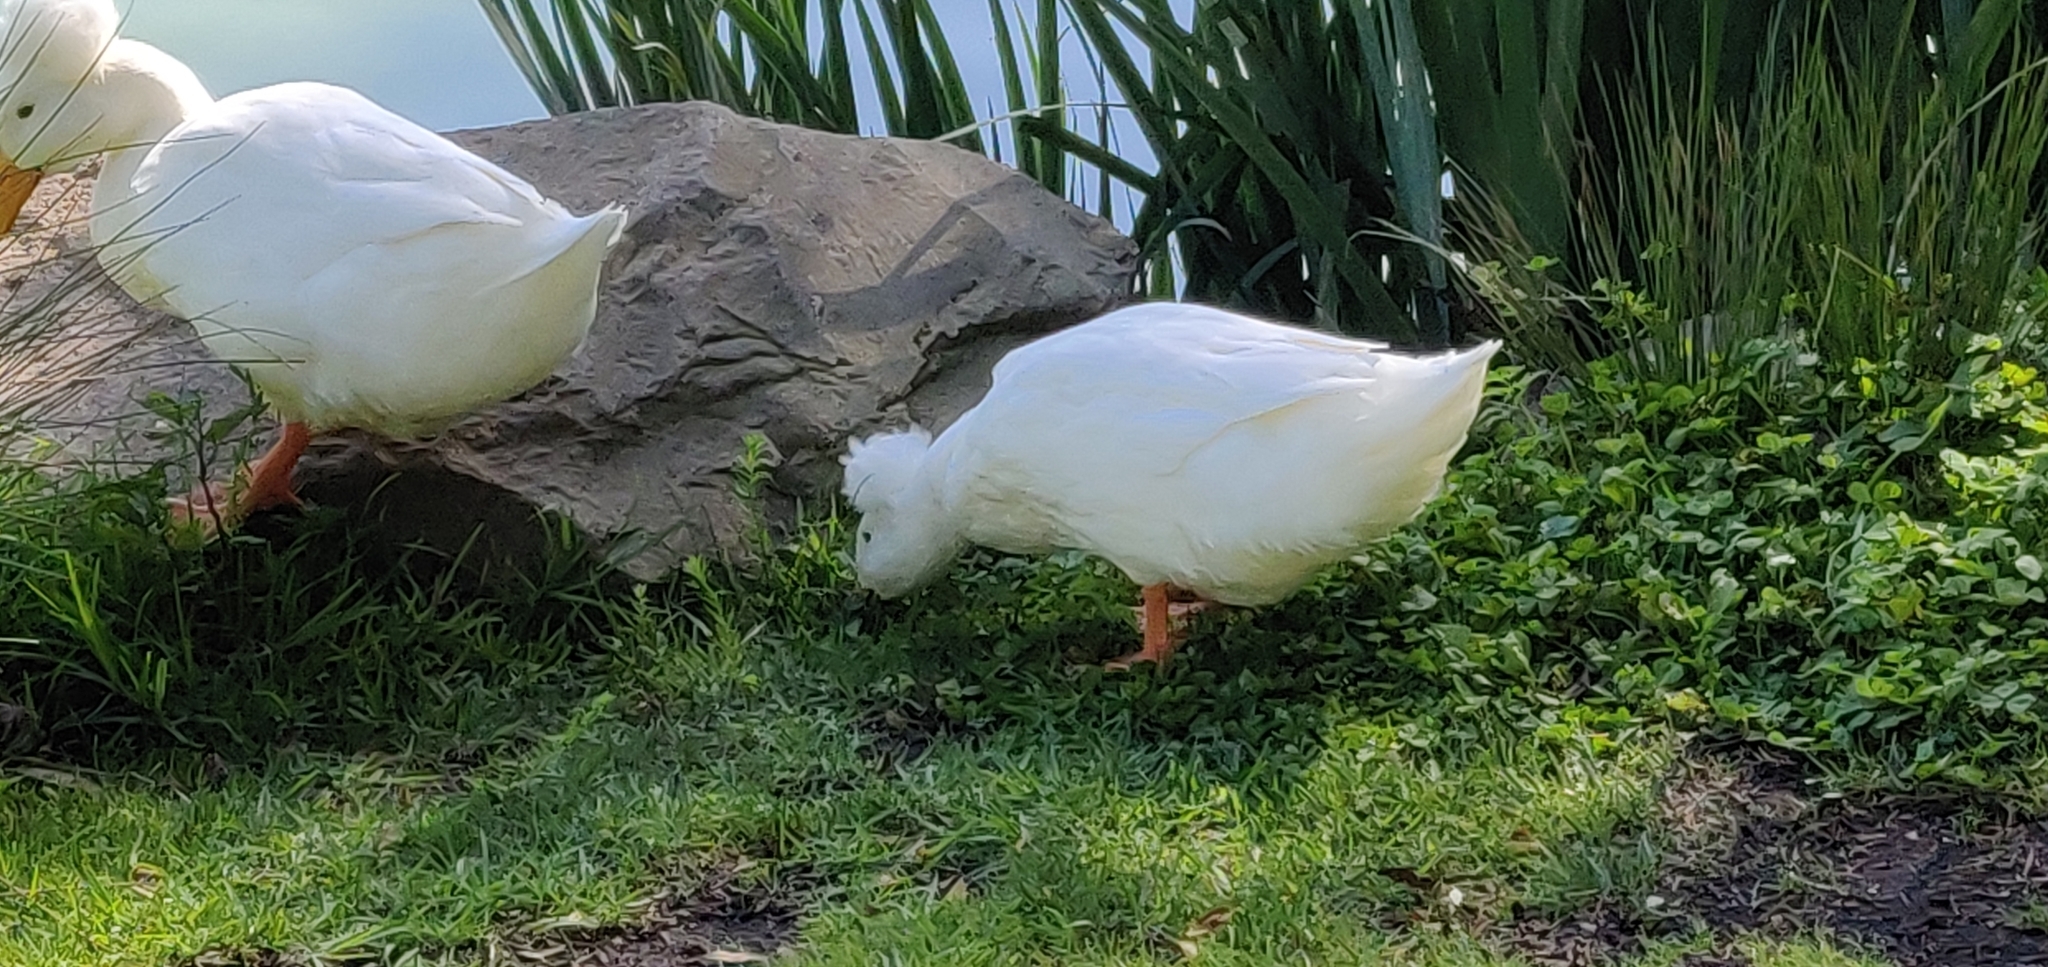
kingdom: Animalia
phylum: Chordata
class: Aves
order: Anseriformes
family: Anatidae
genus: Anas
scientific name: Anas platyrhynchos
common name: Mallard
